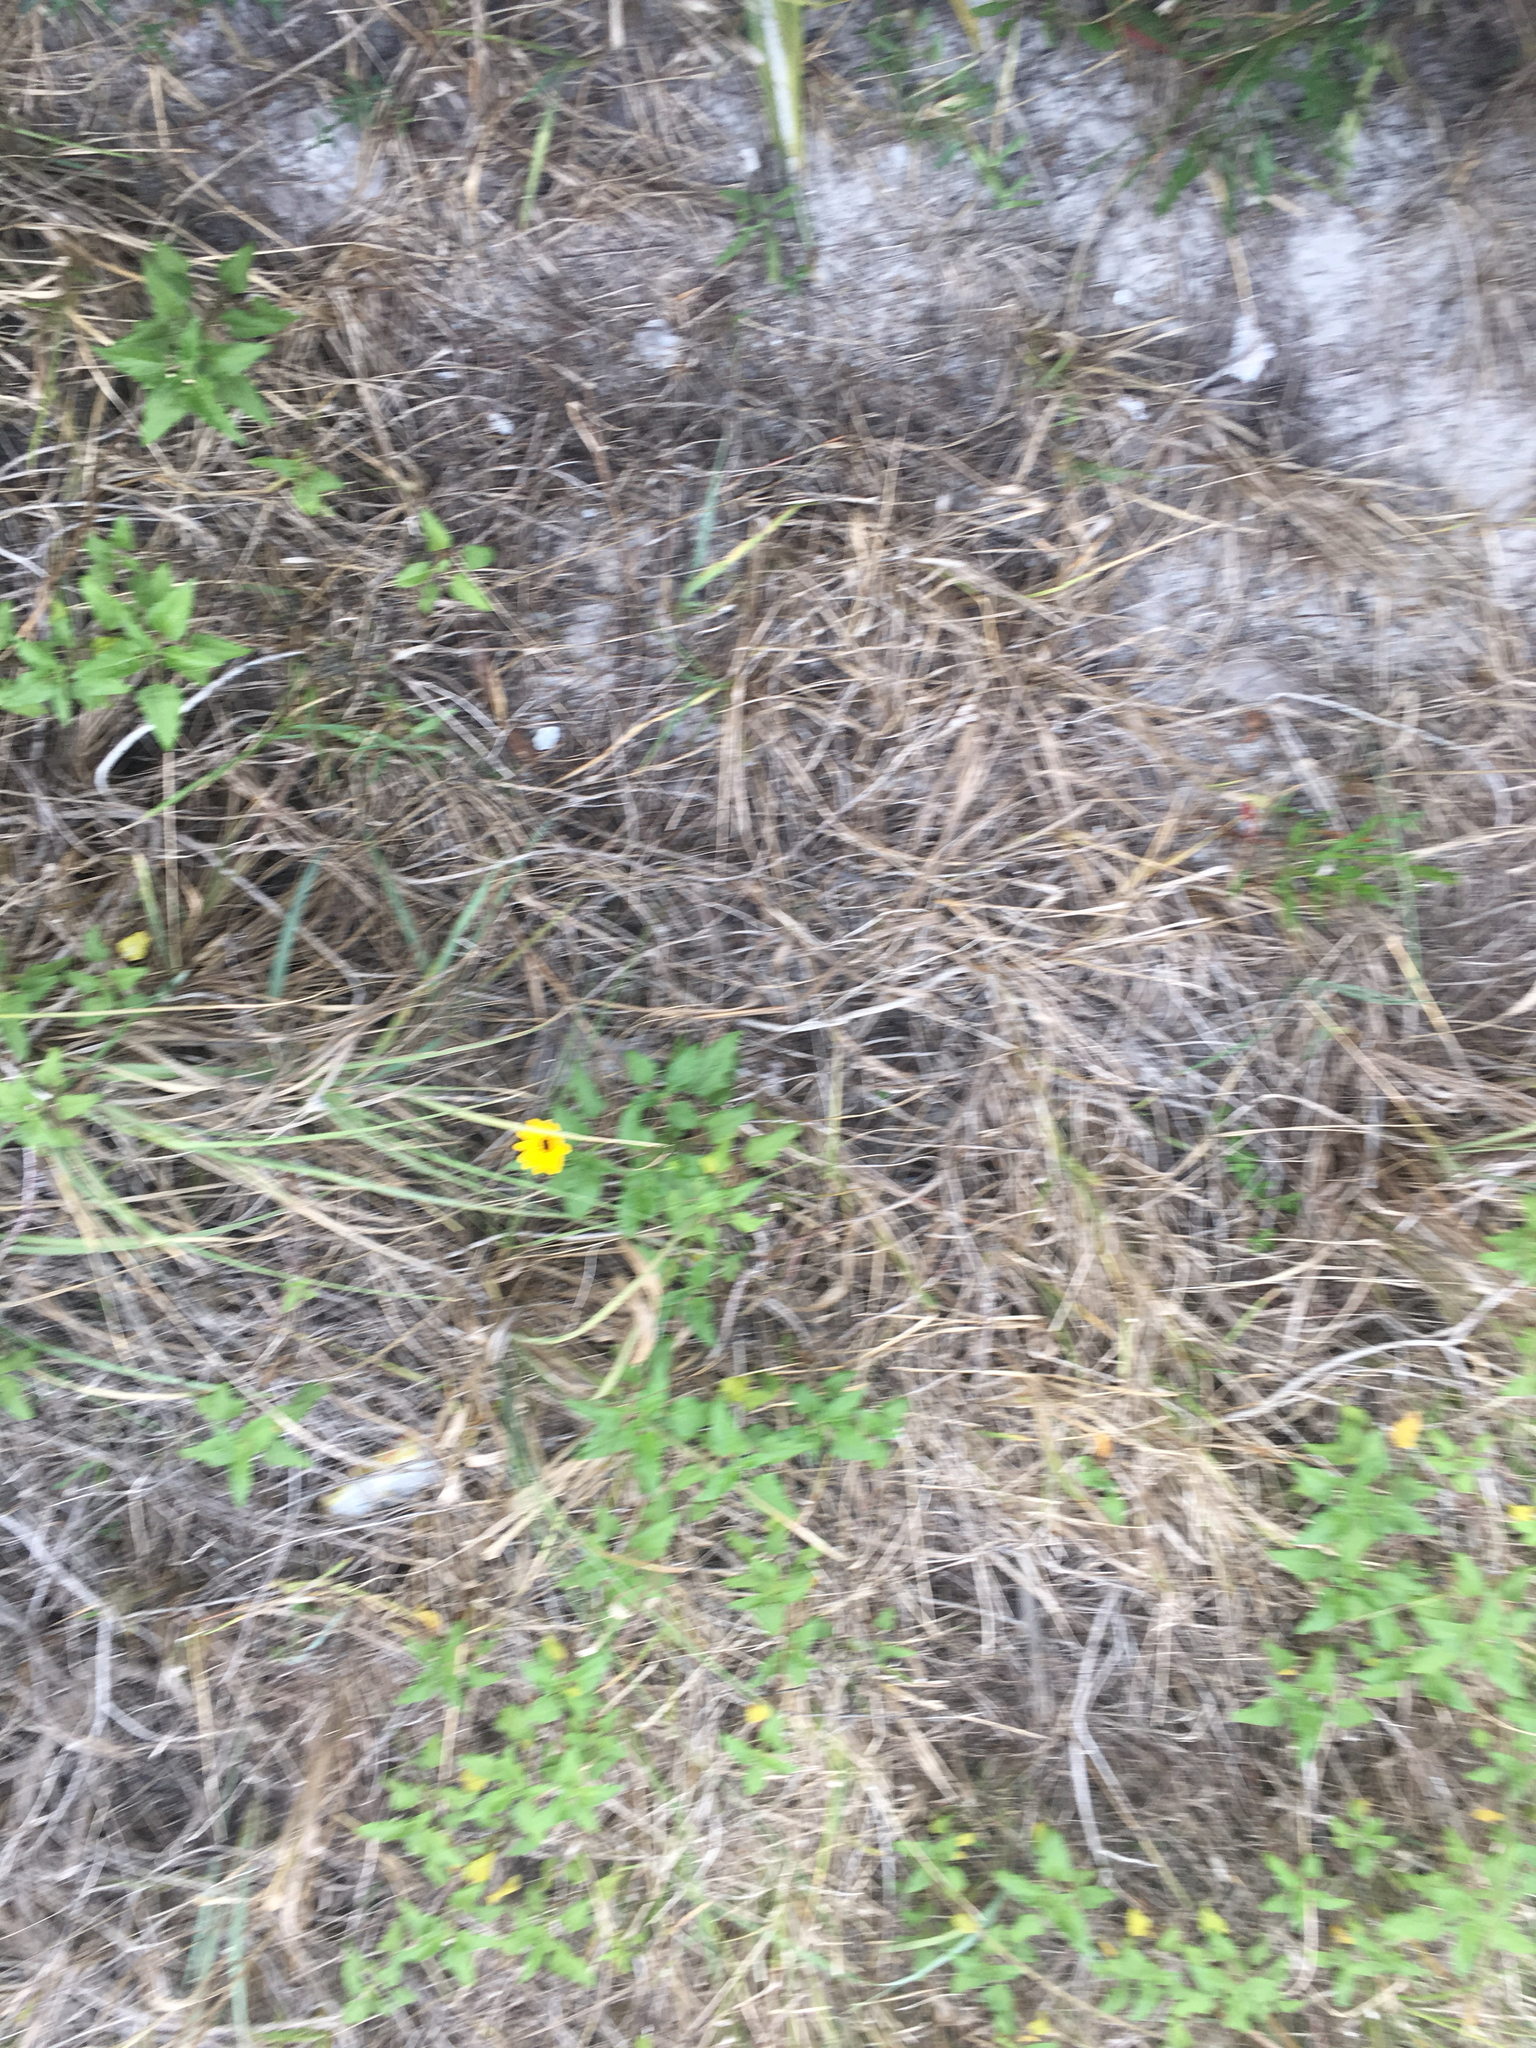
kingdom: Plantae
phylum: Tracheophyta
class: Magnoliopsida
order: Asterales
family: Asteraceae
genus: Helianthus
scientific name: Helianthus debilis
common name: Weak sunflower
